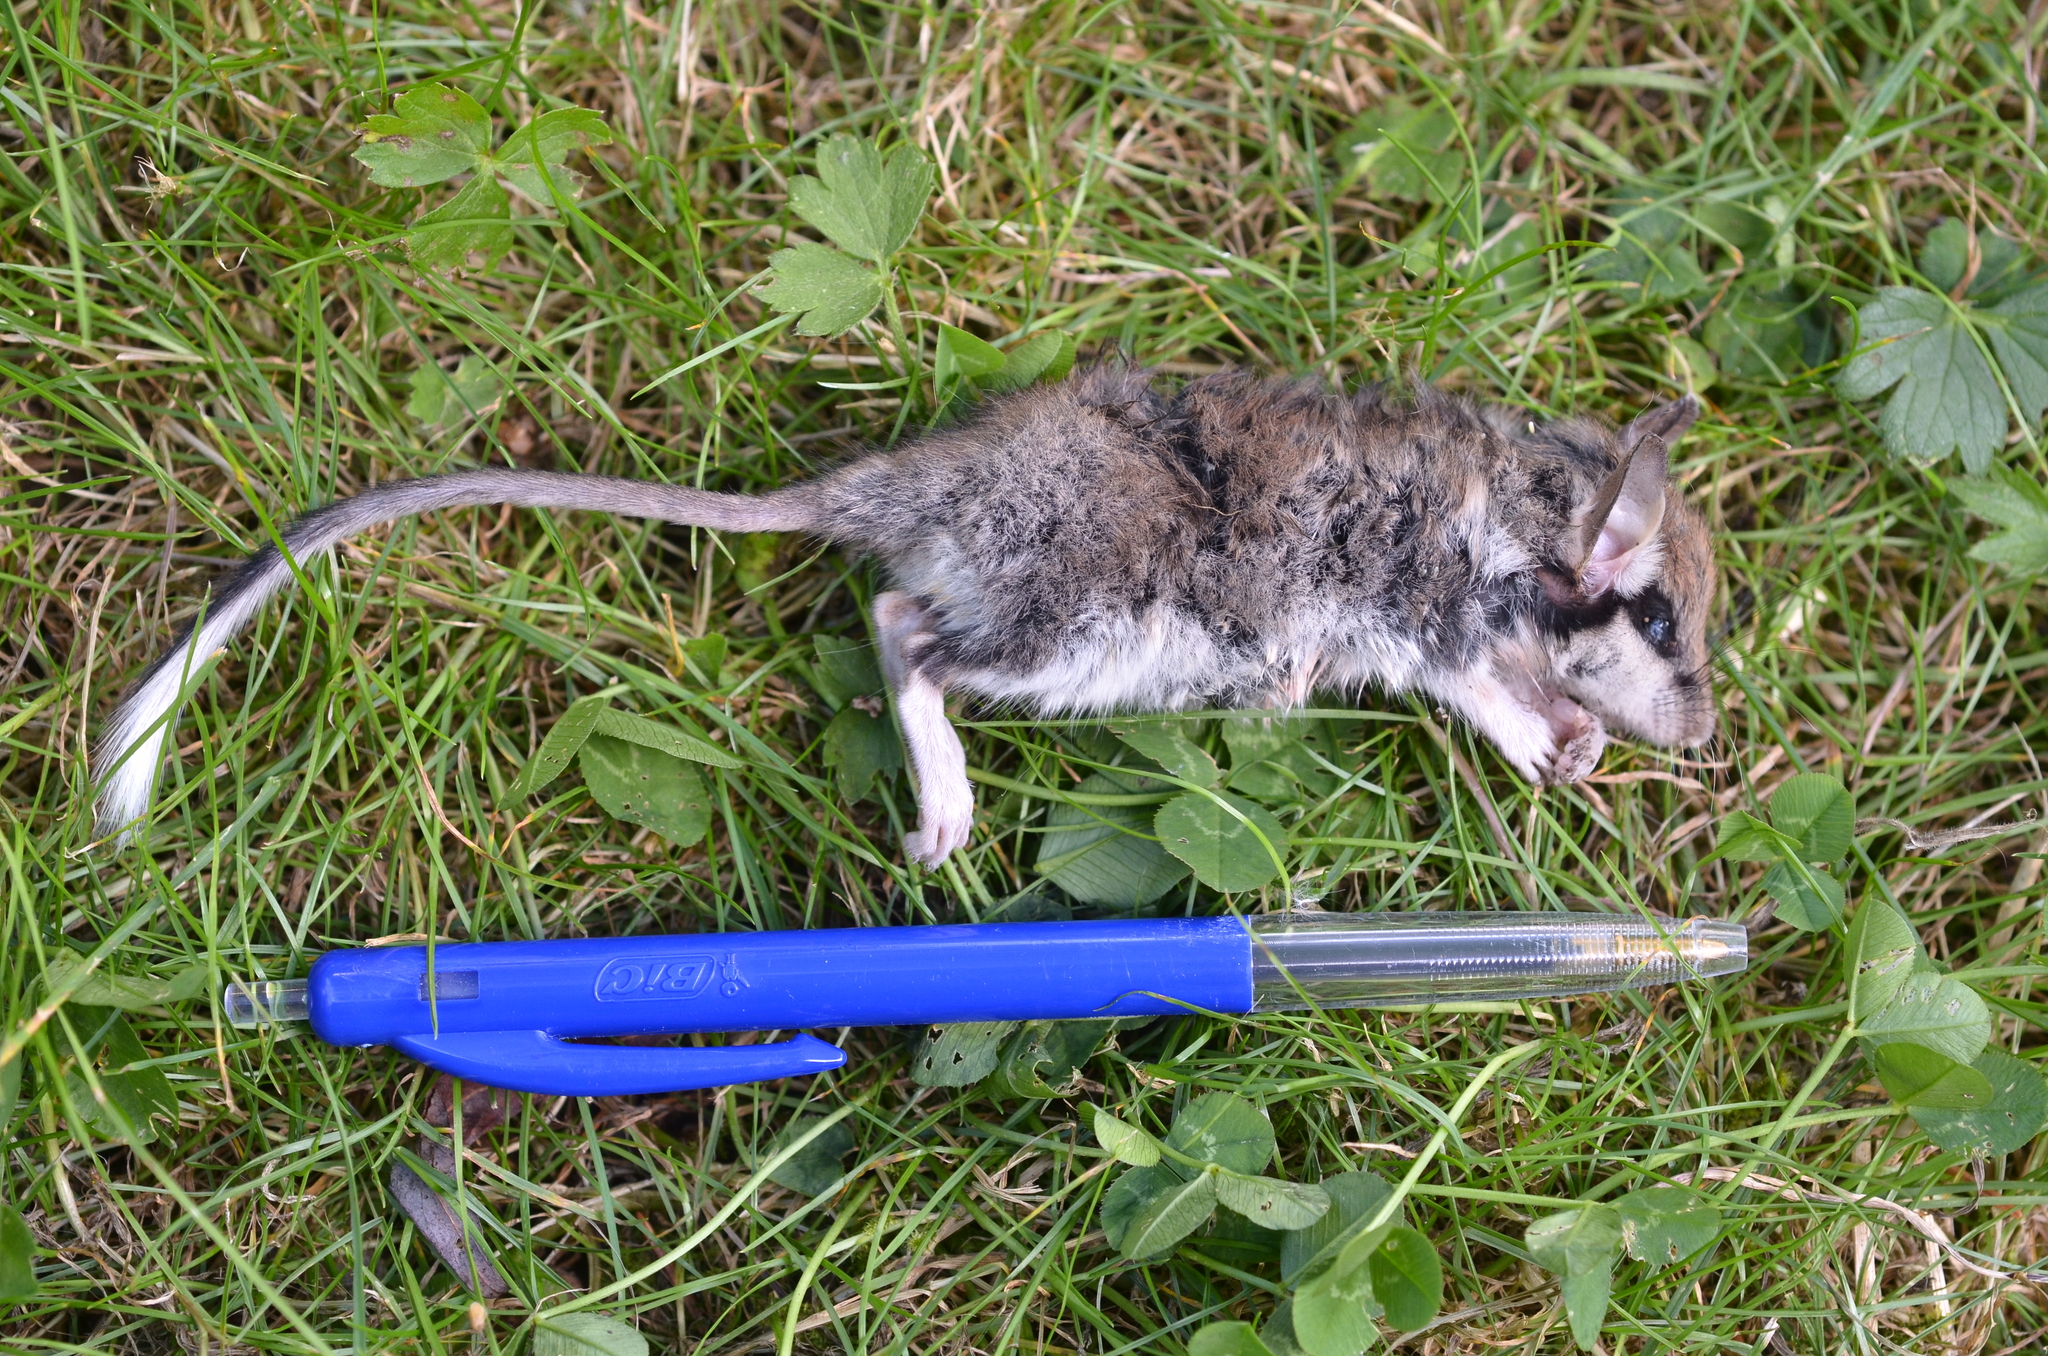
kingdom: Animalia
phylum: Chordata
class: Mammalia
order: Rodentia
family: Gliridae
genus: Eliomys
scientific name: Eliomys quercinus
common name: Garden dormouse
